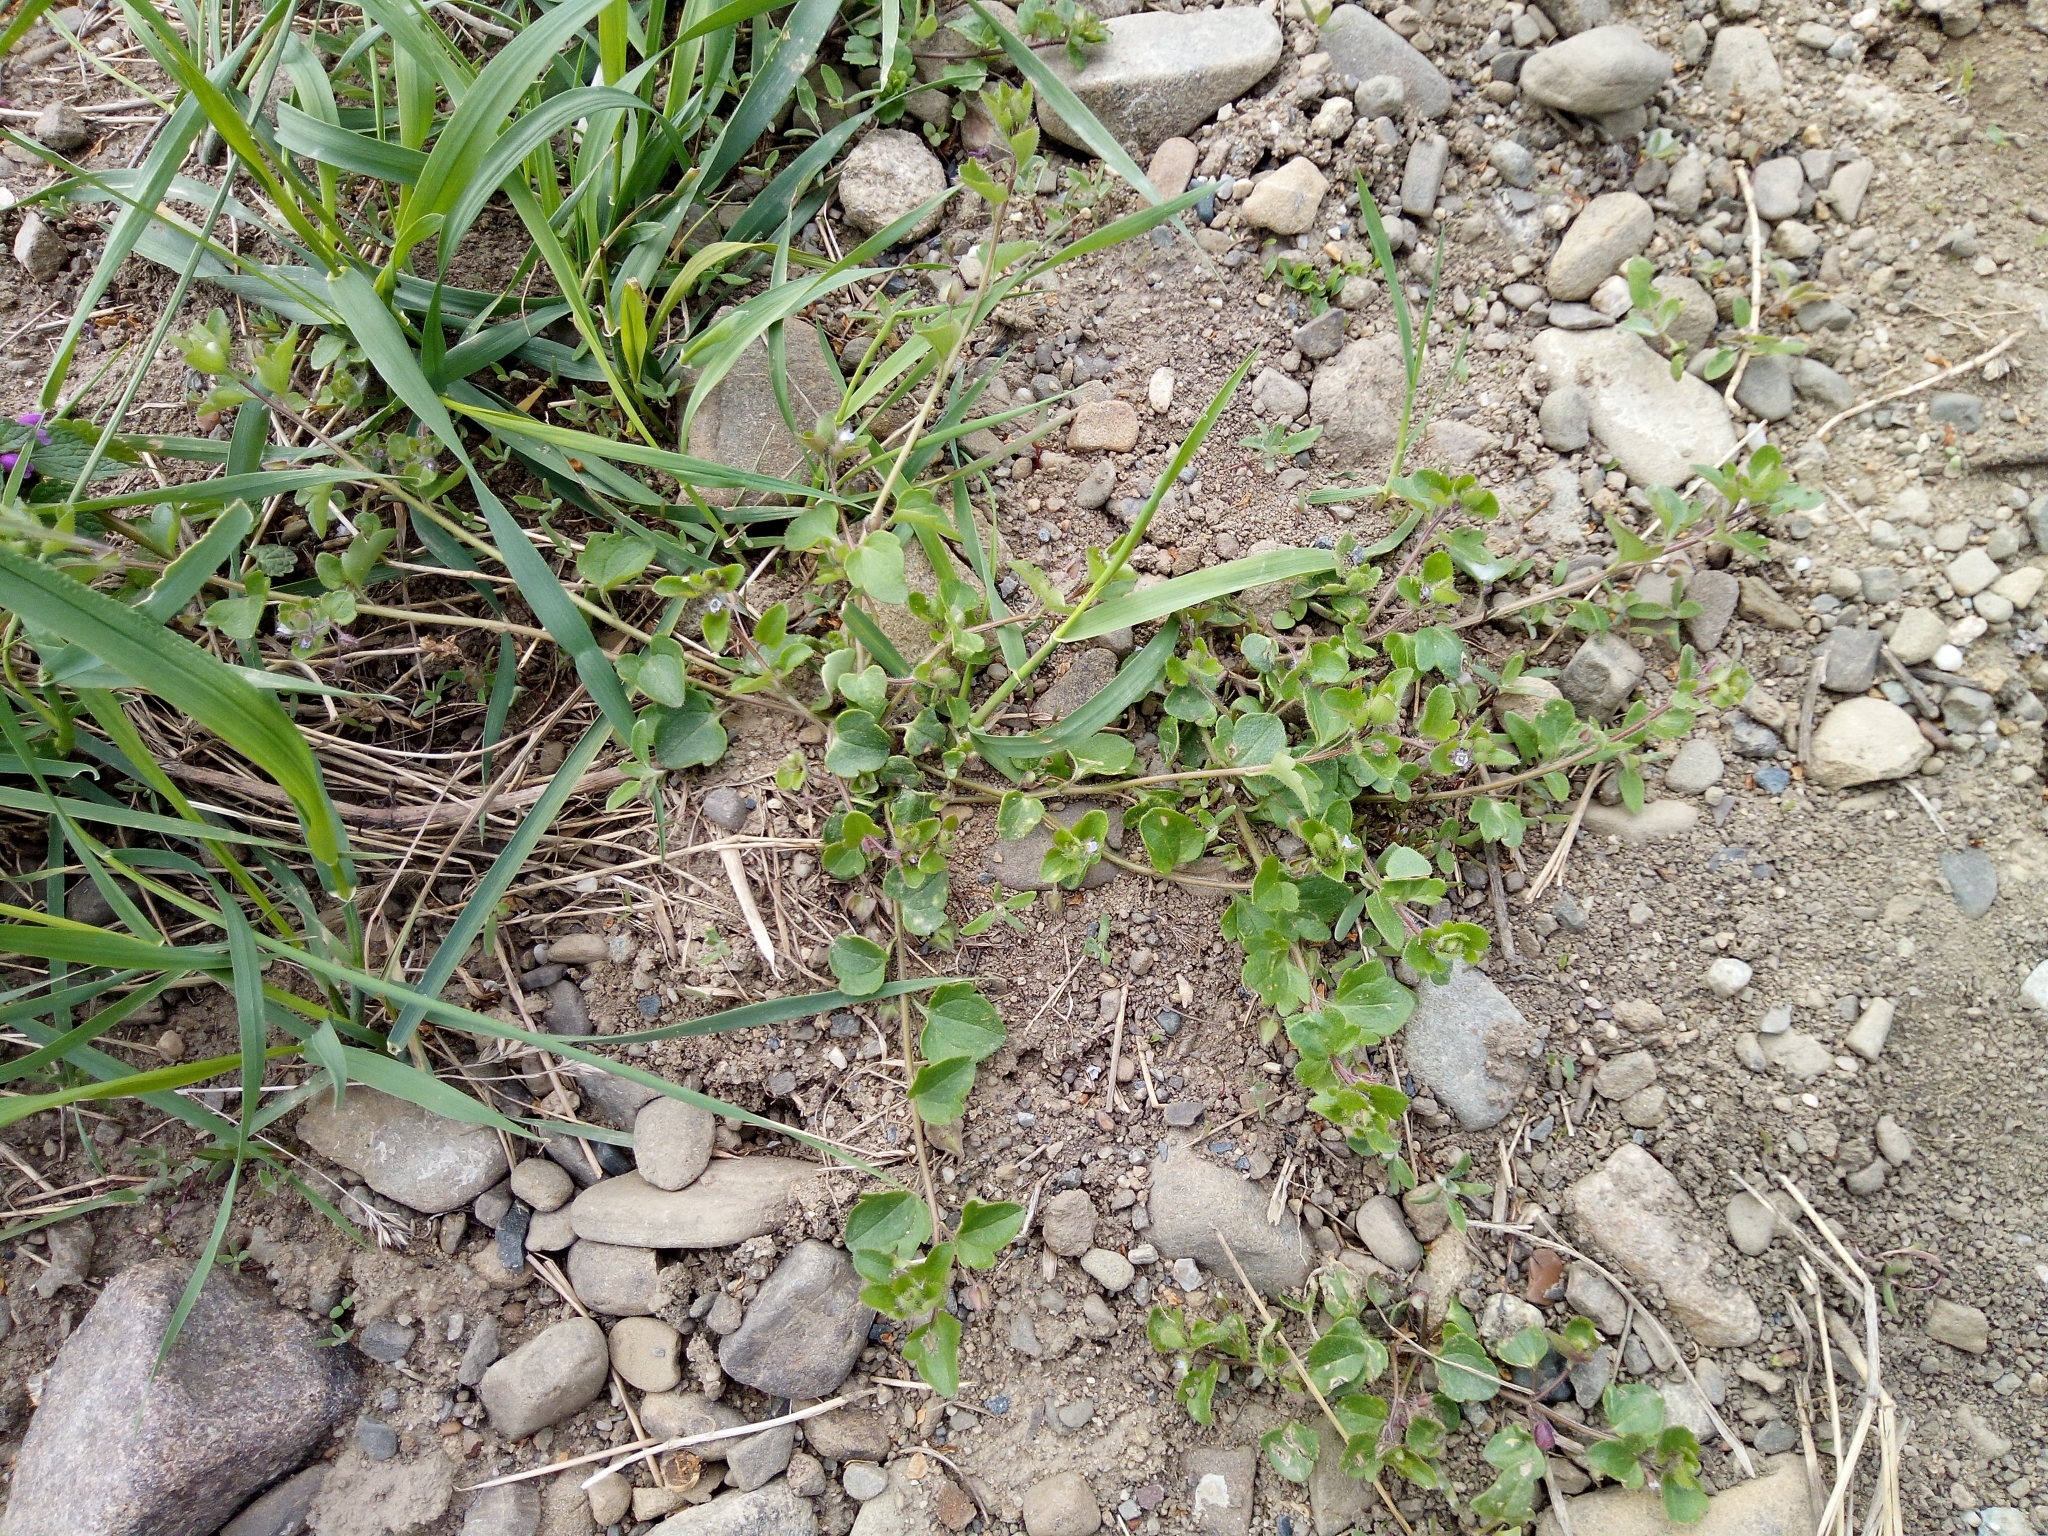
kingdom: Plantae
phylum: Tracheophyta
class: Magnoliopsida
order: Lamiales
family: Plantaginaceae
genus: Veronica
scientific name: Veronica sublobata
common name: False ivy-leaved speedwell
